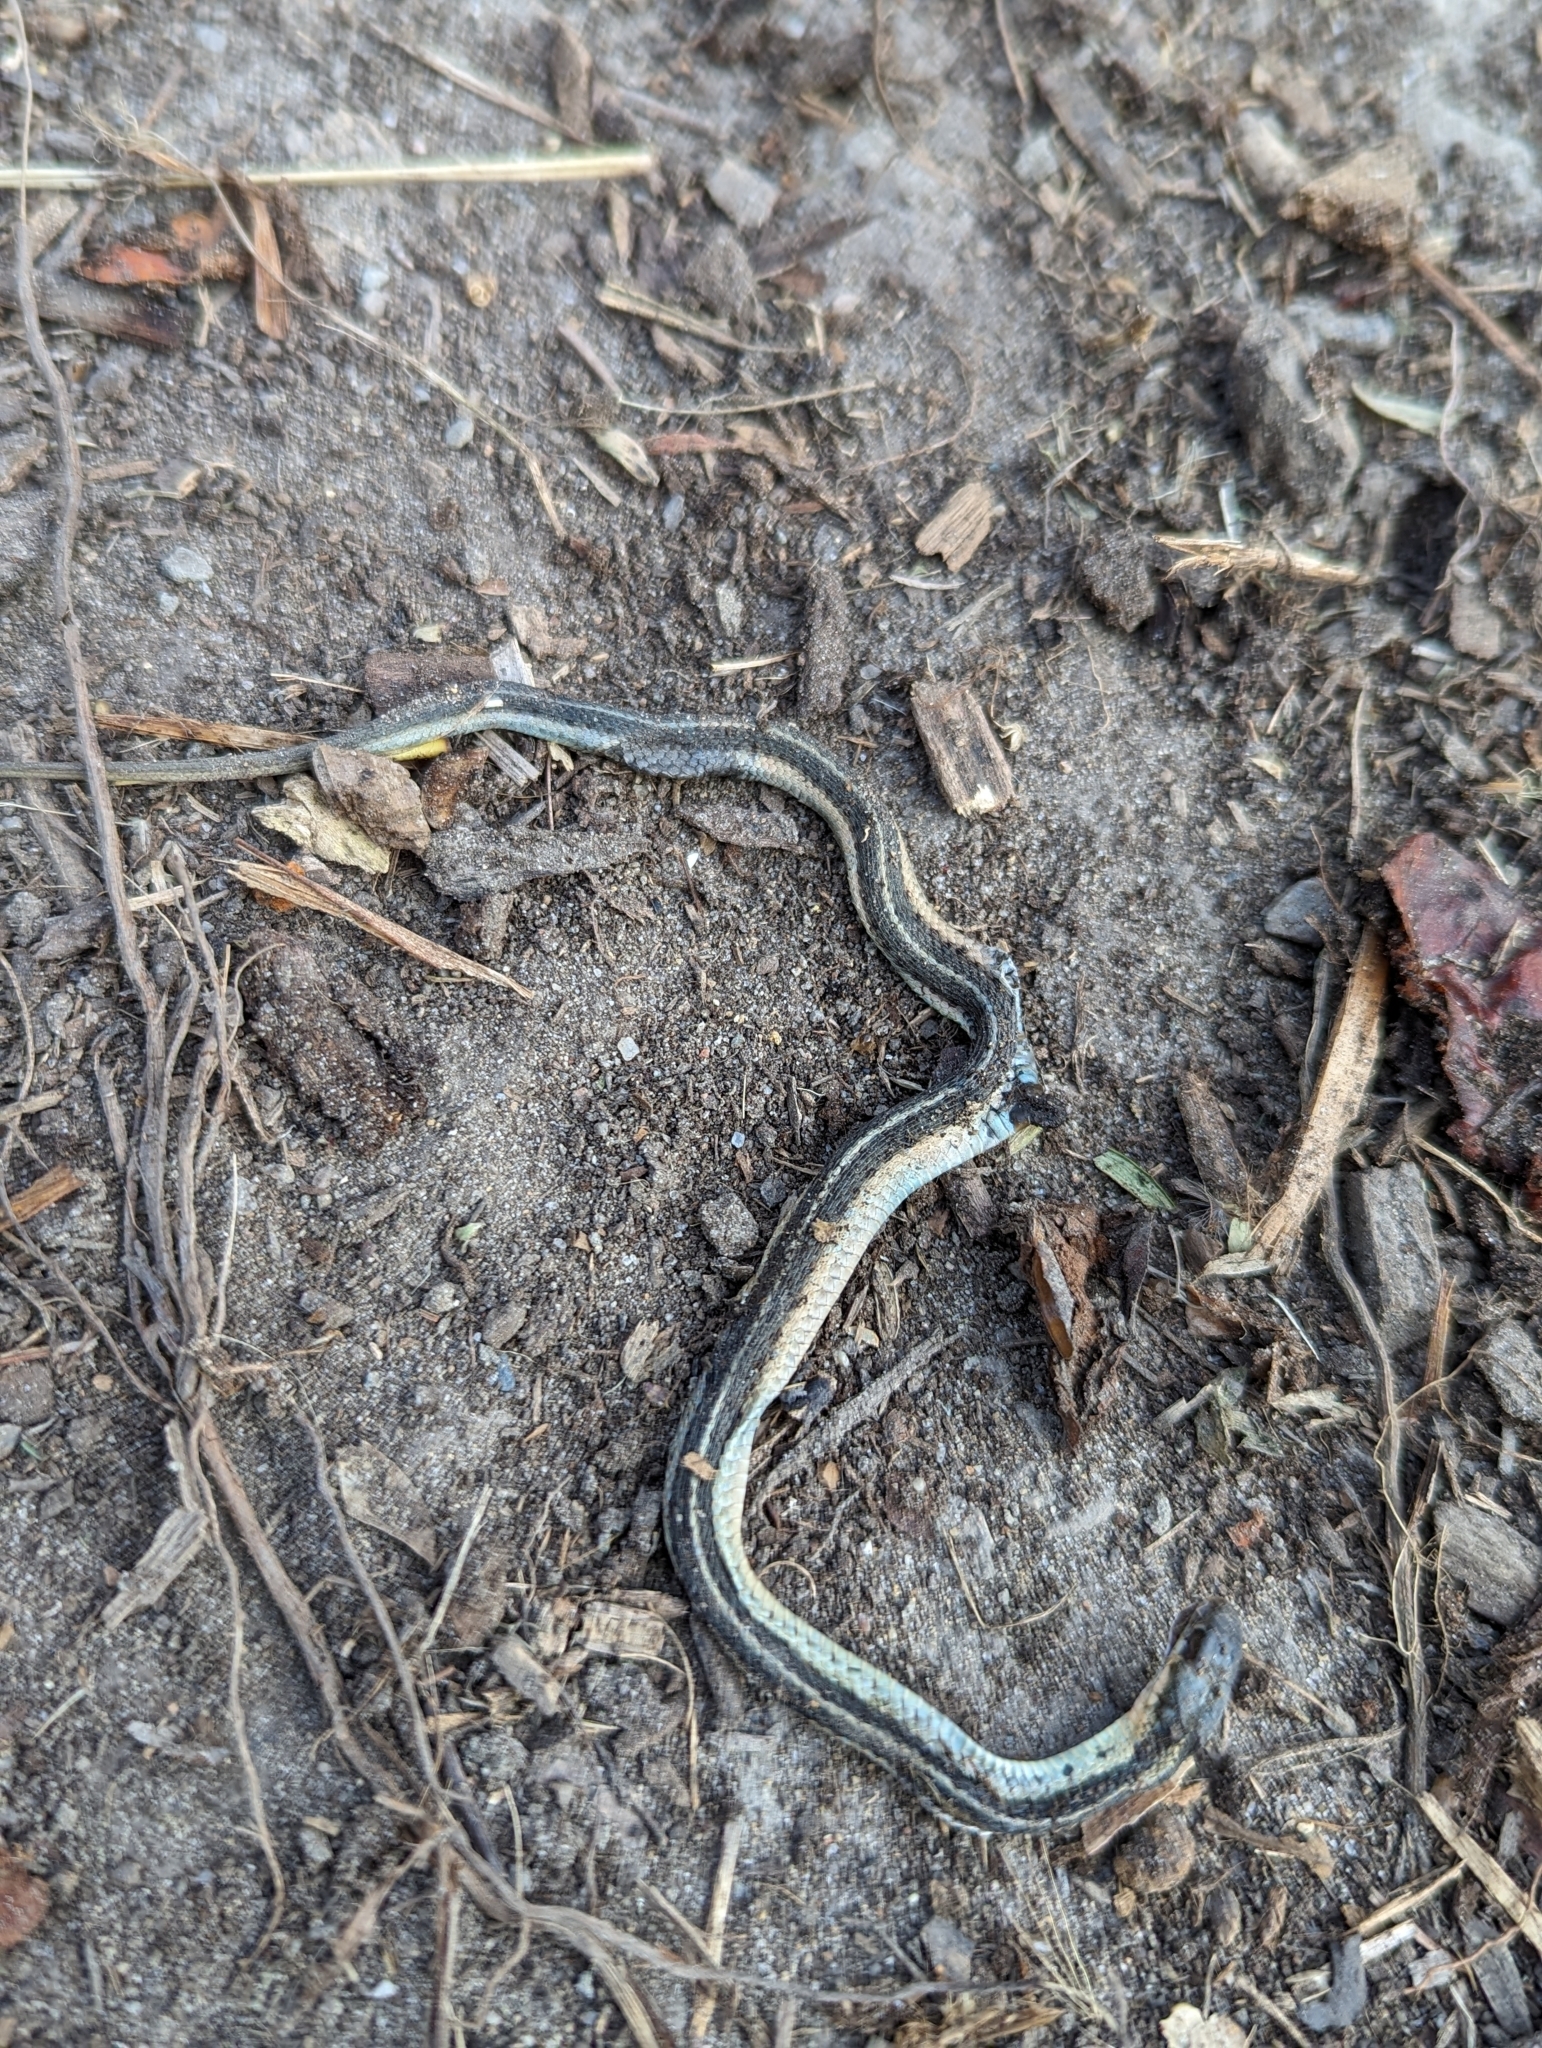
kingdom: Animalia
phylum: Chordata
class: Squamata
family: Colubridae
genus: Thamnophis
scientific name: Thamnophis sirtalis
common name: Common garter snake
